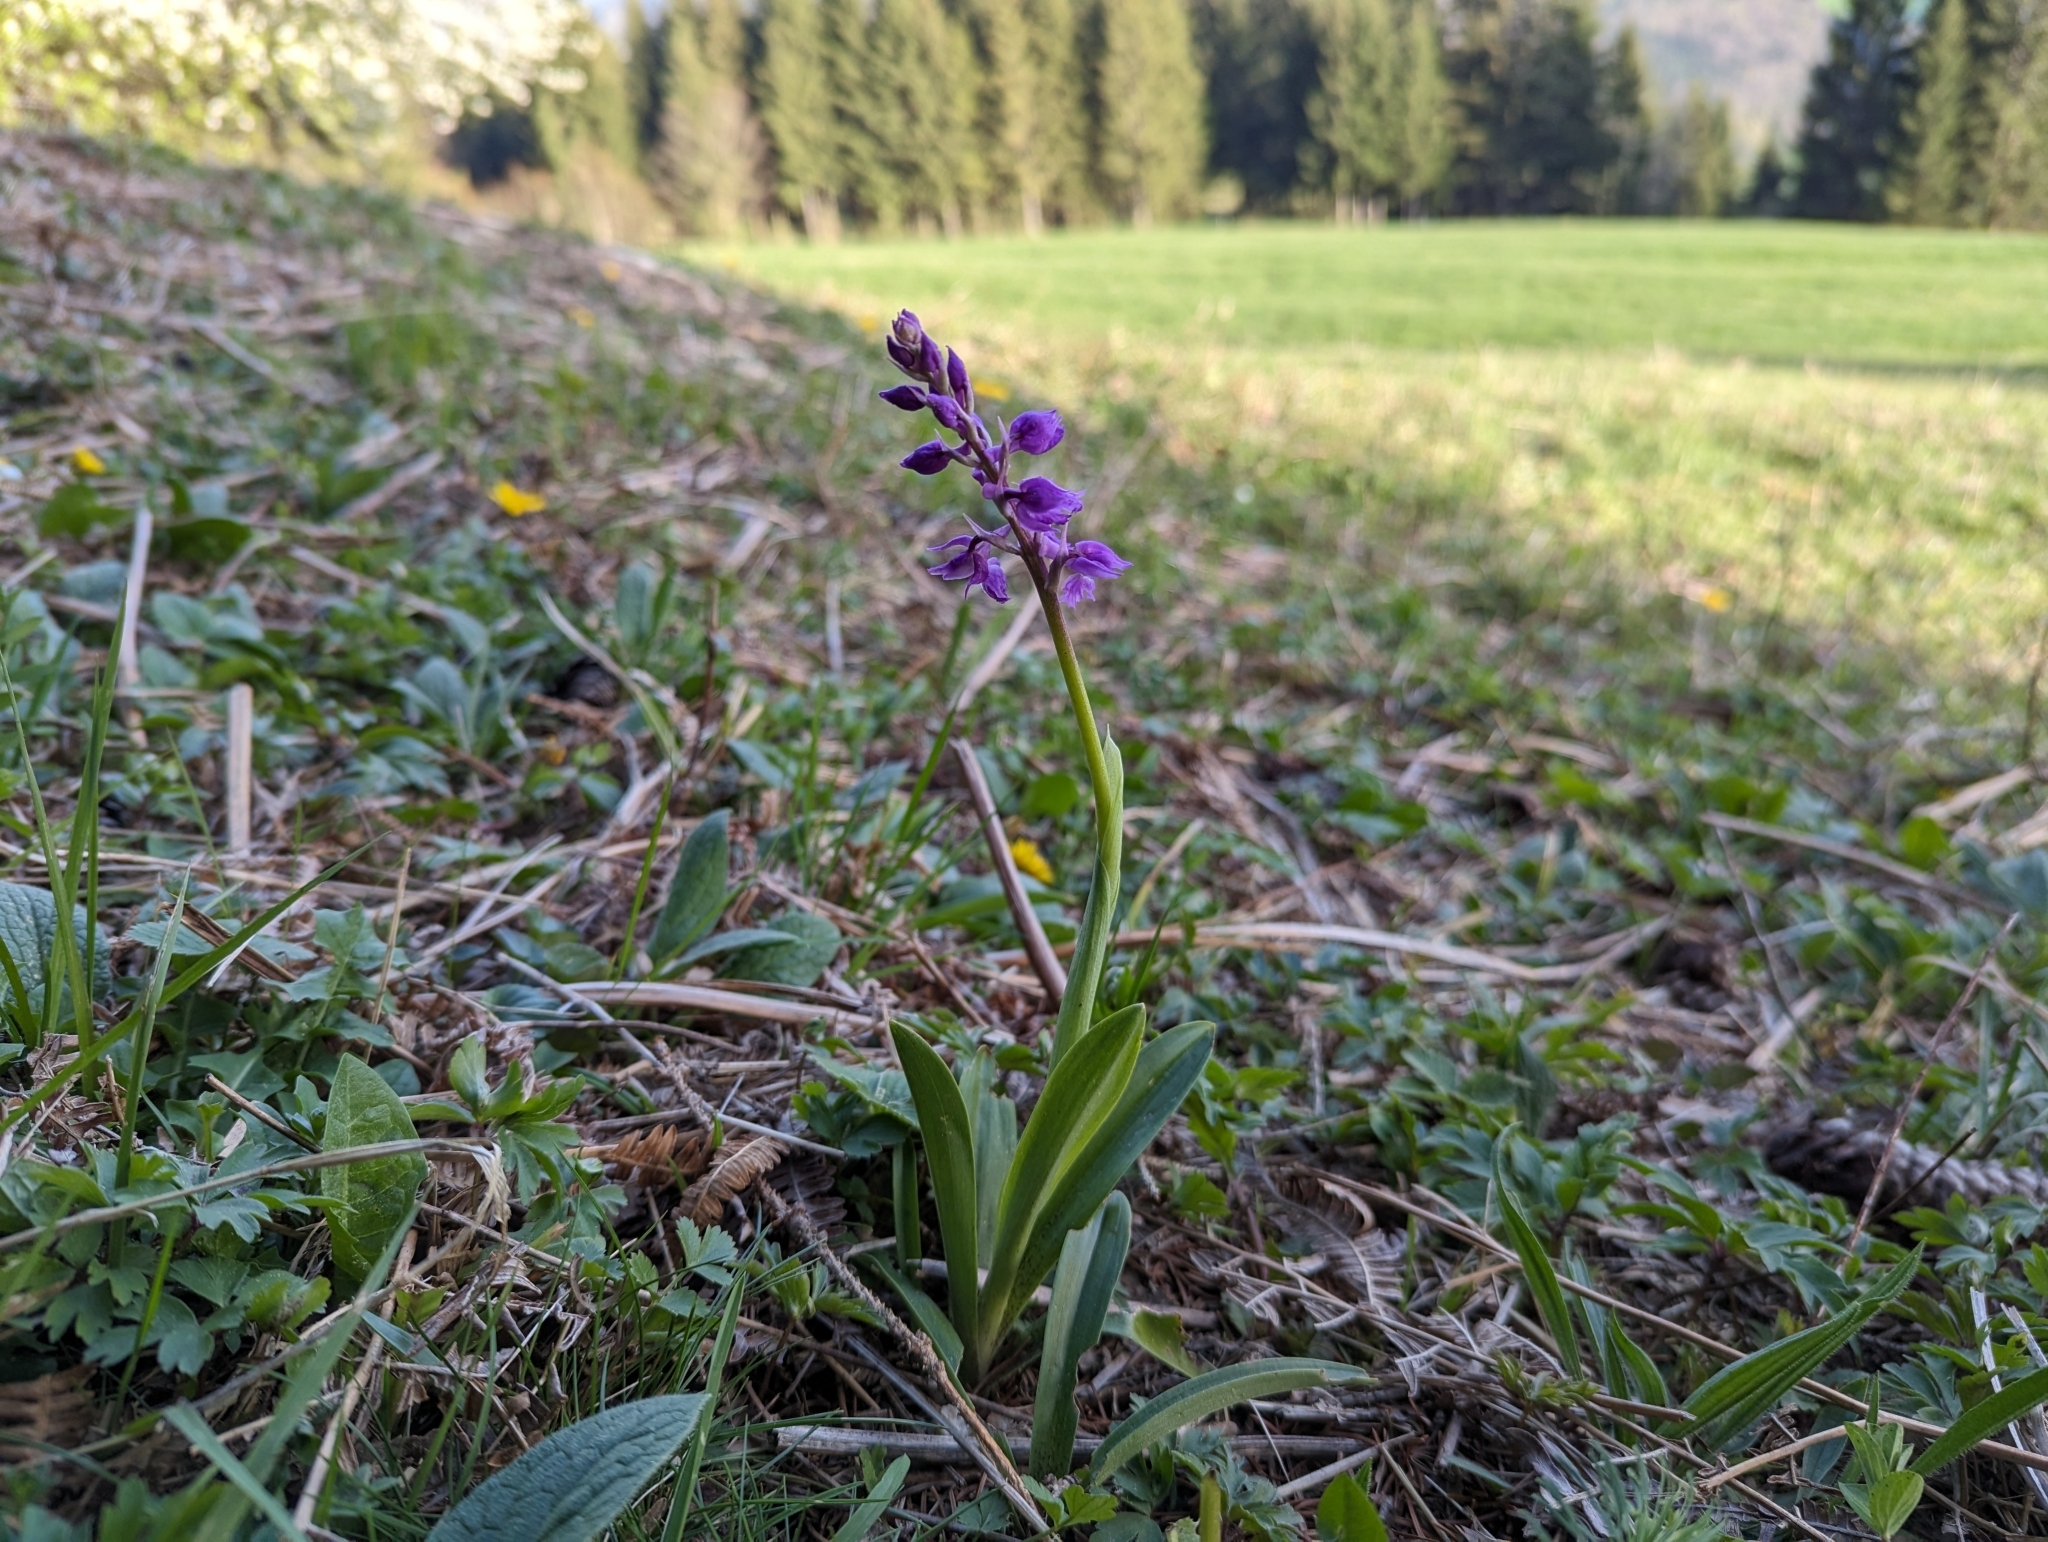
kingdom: Plantae
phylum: Tracheophyta
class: Liliopsida
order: Asparagales
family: Orchidaceae
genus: Orchis
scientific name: Orchis mascula
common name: Early-purple orchid
